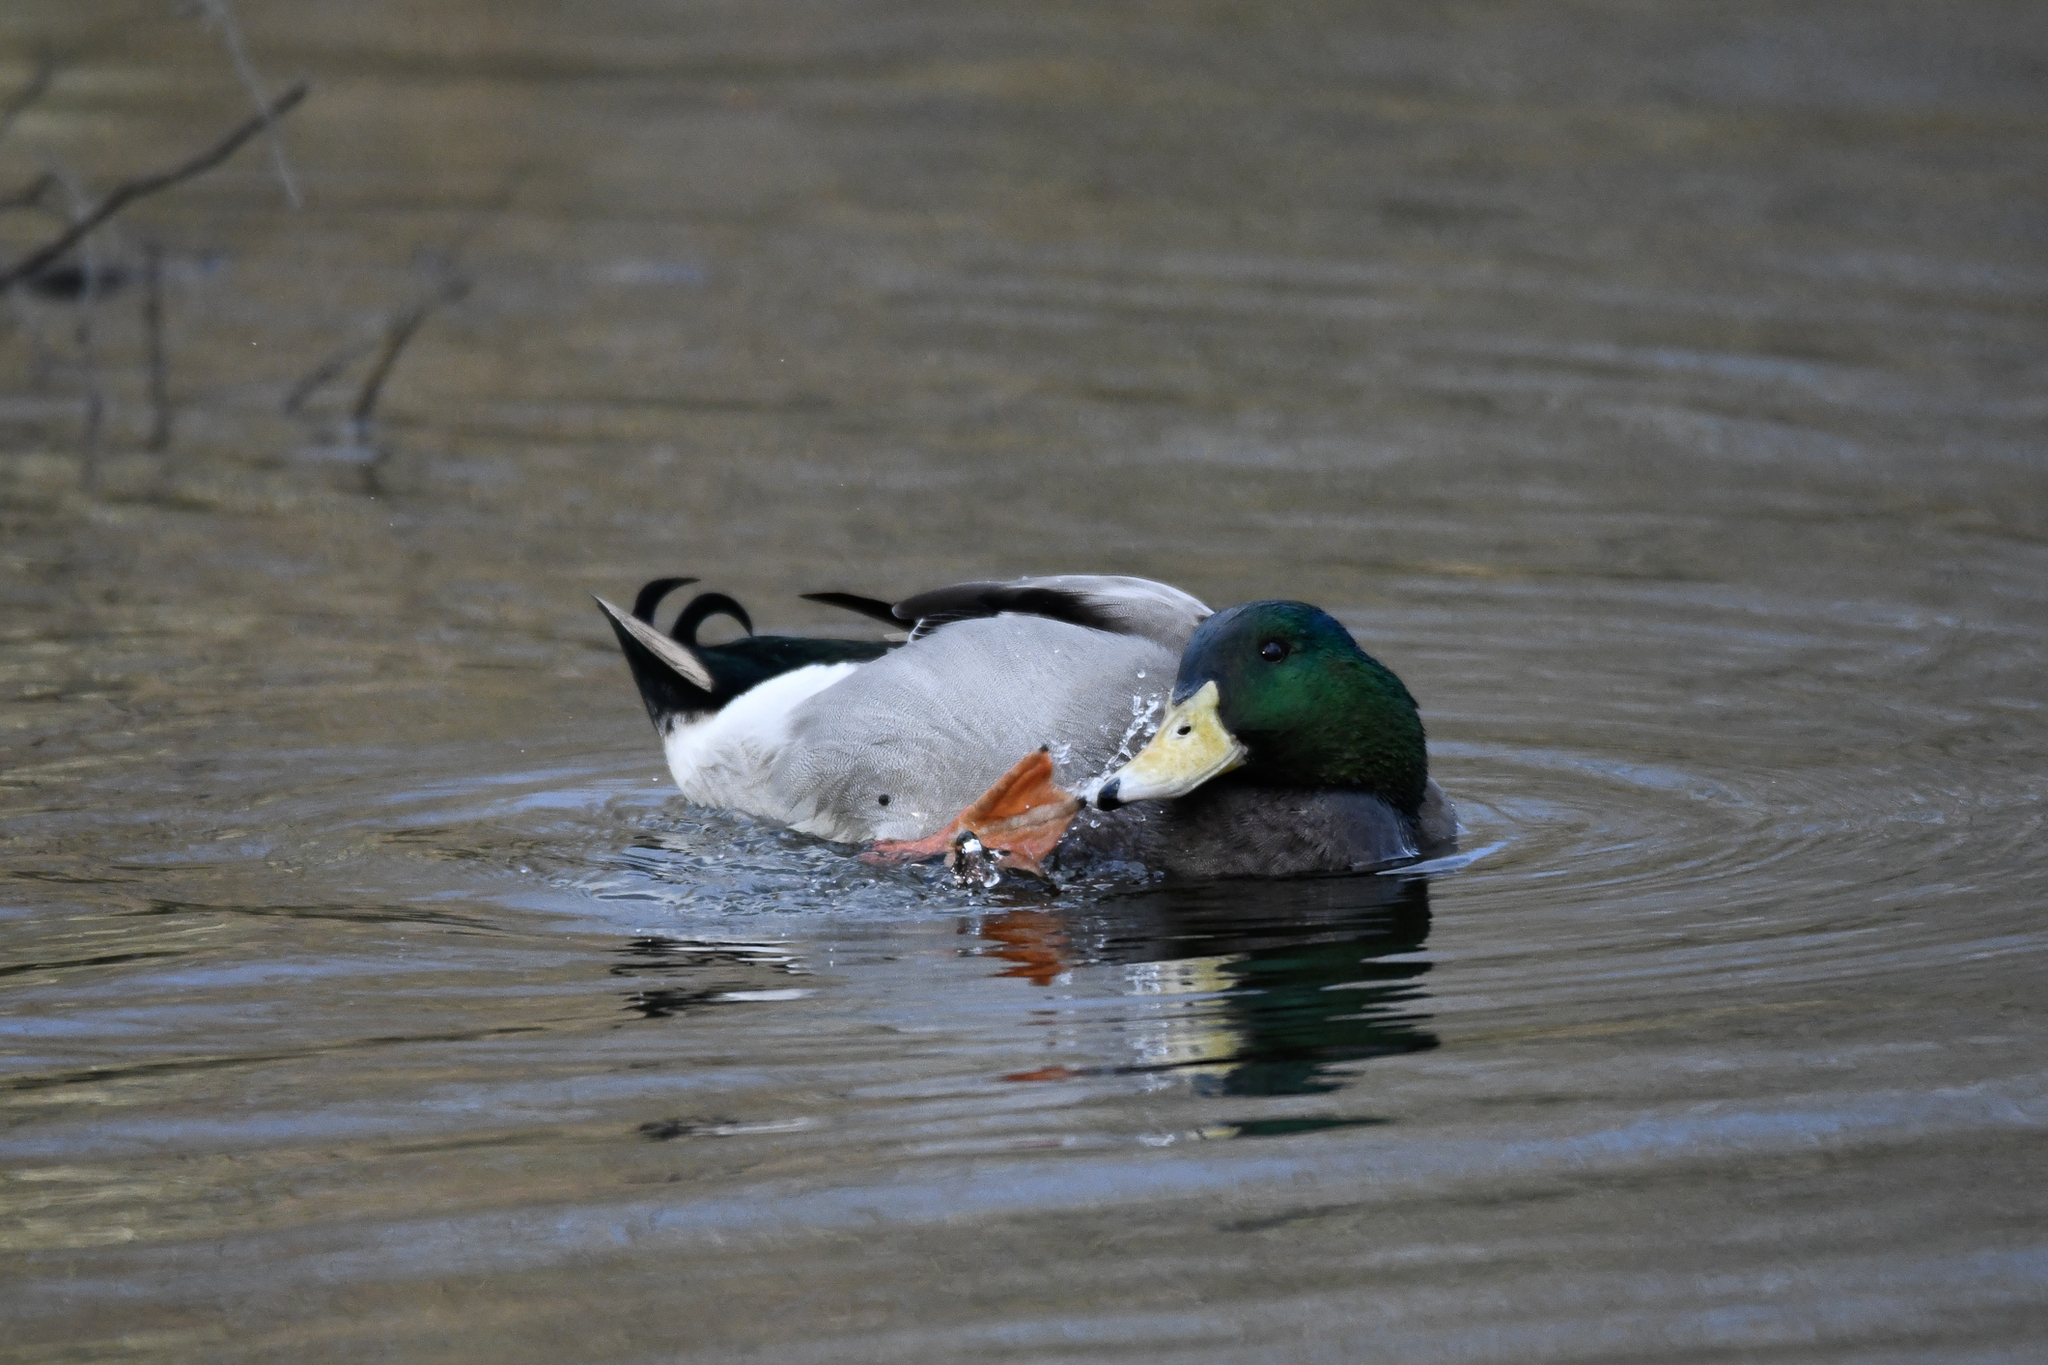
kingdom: Animalia
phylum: Chordata
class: Aves
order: Anseriformes
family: Anatidae
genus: Anas
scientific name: Anas platyrhynchos
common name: Mallard
